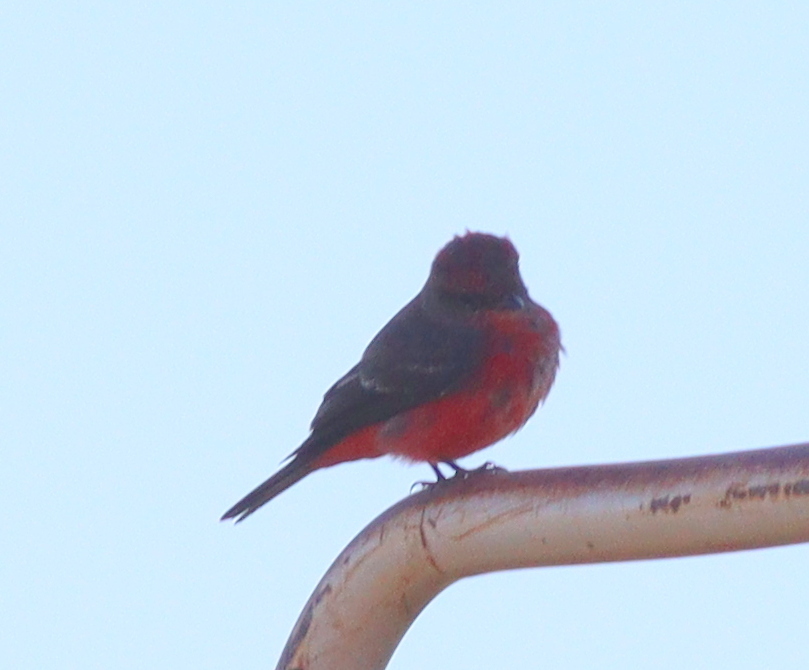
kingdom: Animalia
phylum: Chordata
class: Aves
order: Passeriformes
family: Tyrannidae
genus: Pyrocephalus
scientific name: Pyrocephalus rubinus
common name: Vermilion flycatcher
